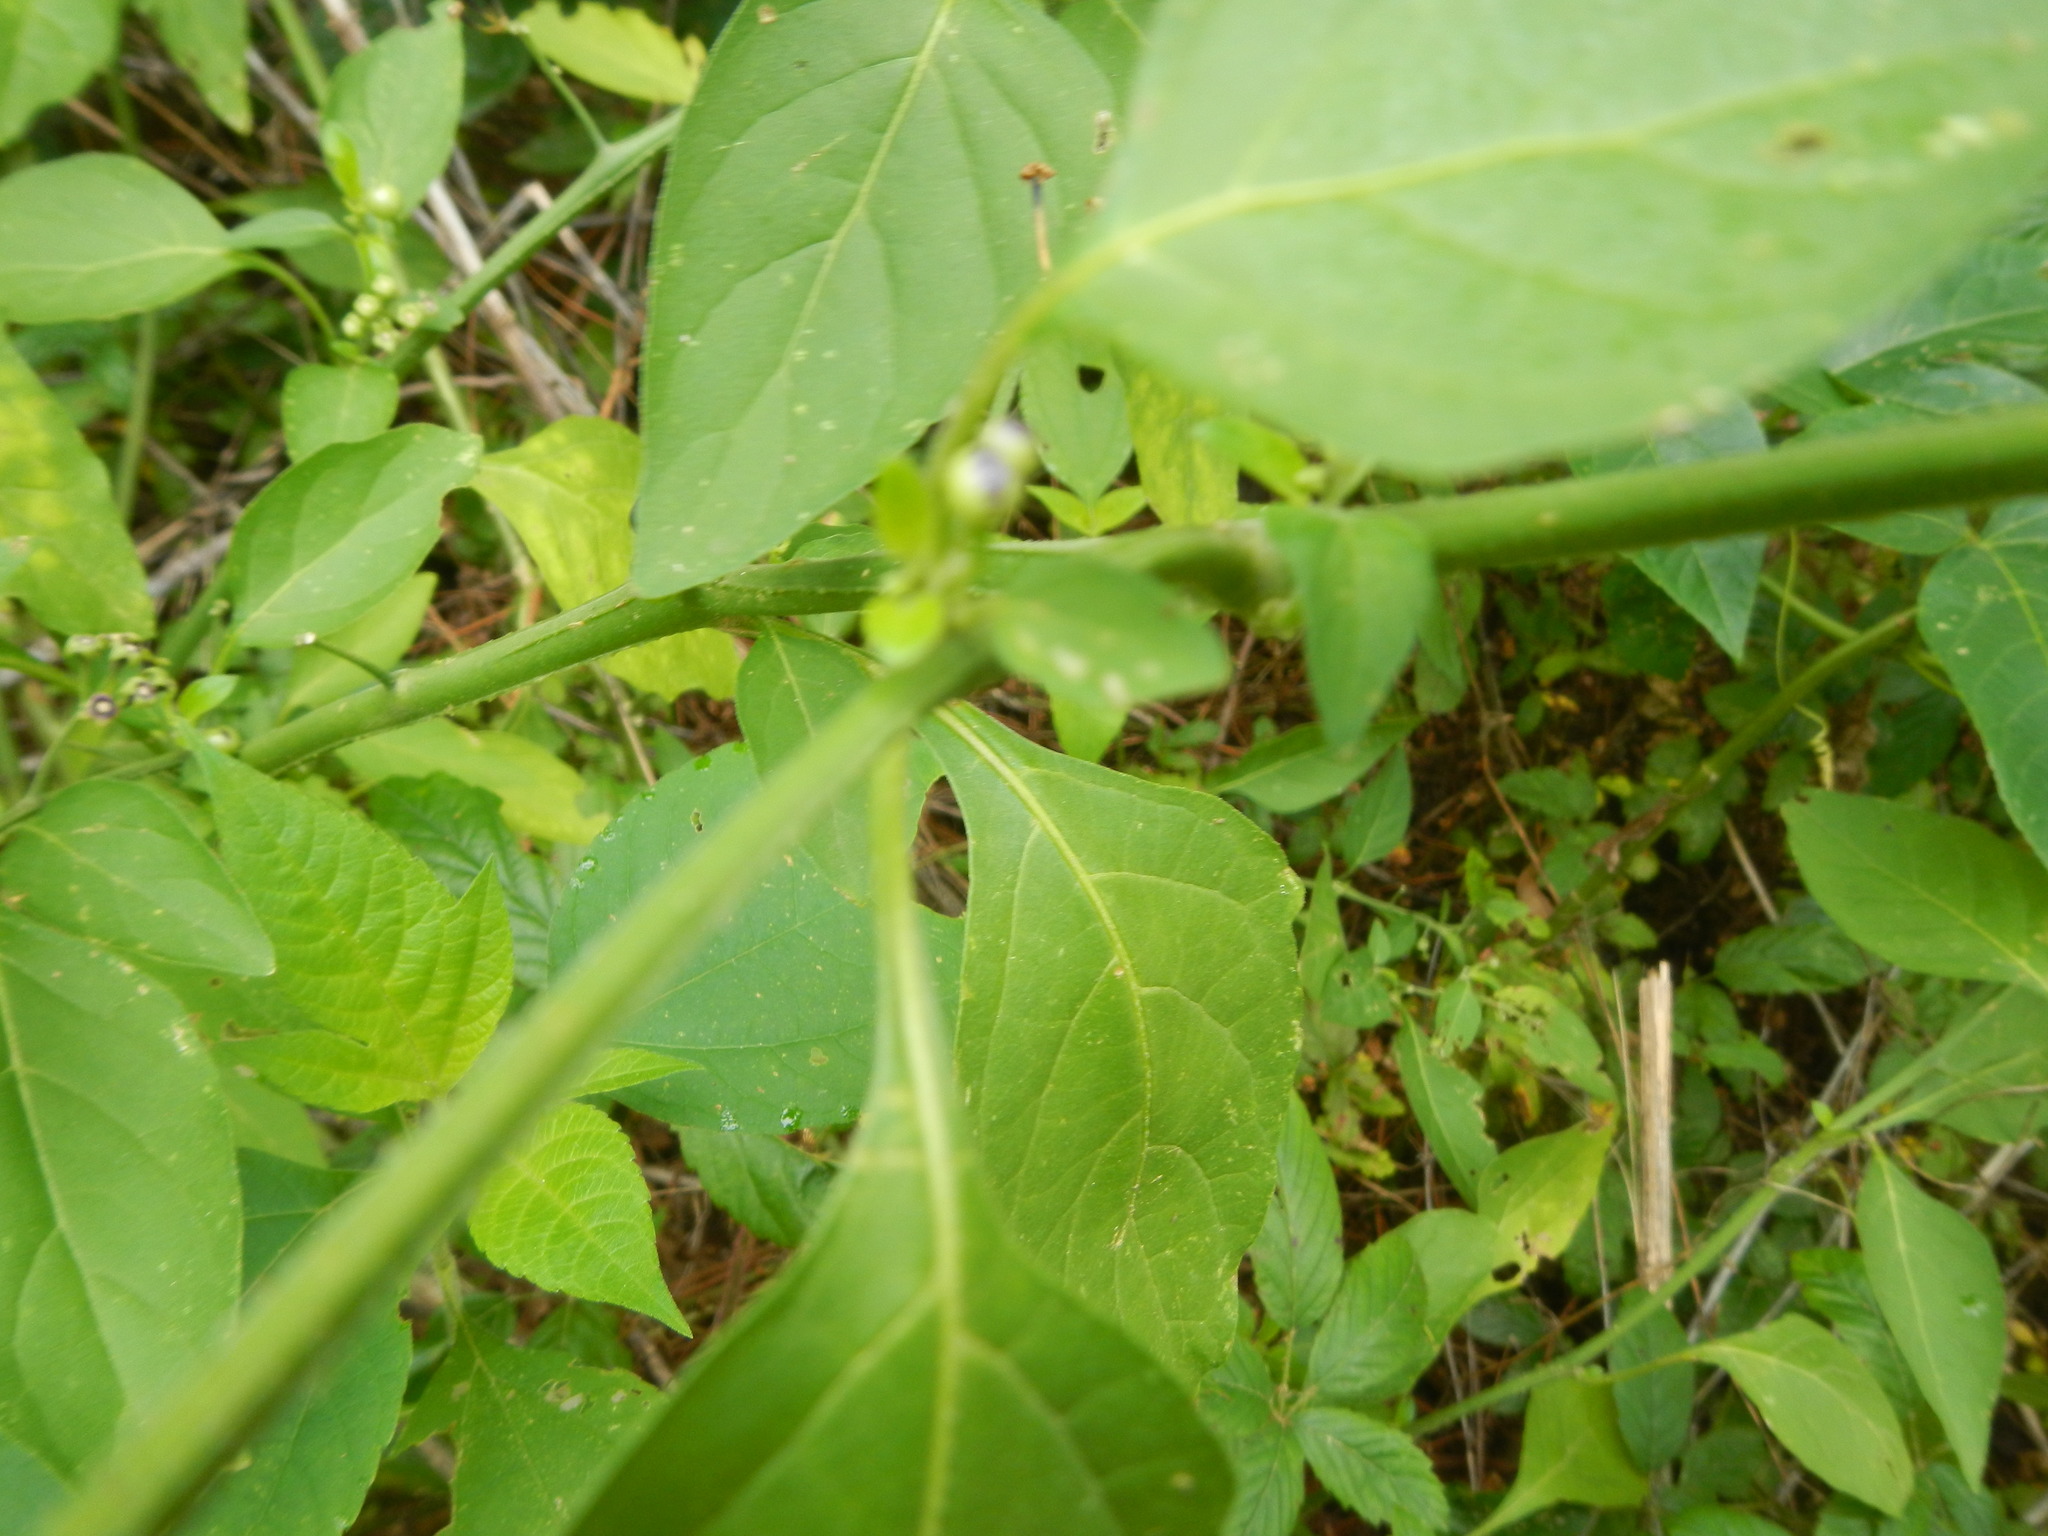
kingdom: Plantae
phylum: Tracheophyta
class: Magnoliopsida
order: Solanales
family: Solanaceae
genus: Solanum
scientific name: Solanum americanum
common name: American black nightshade
